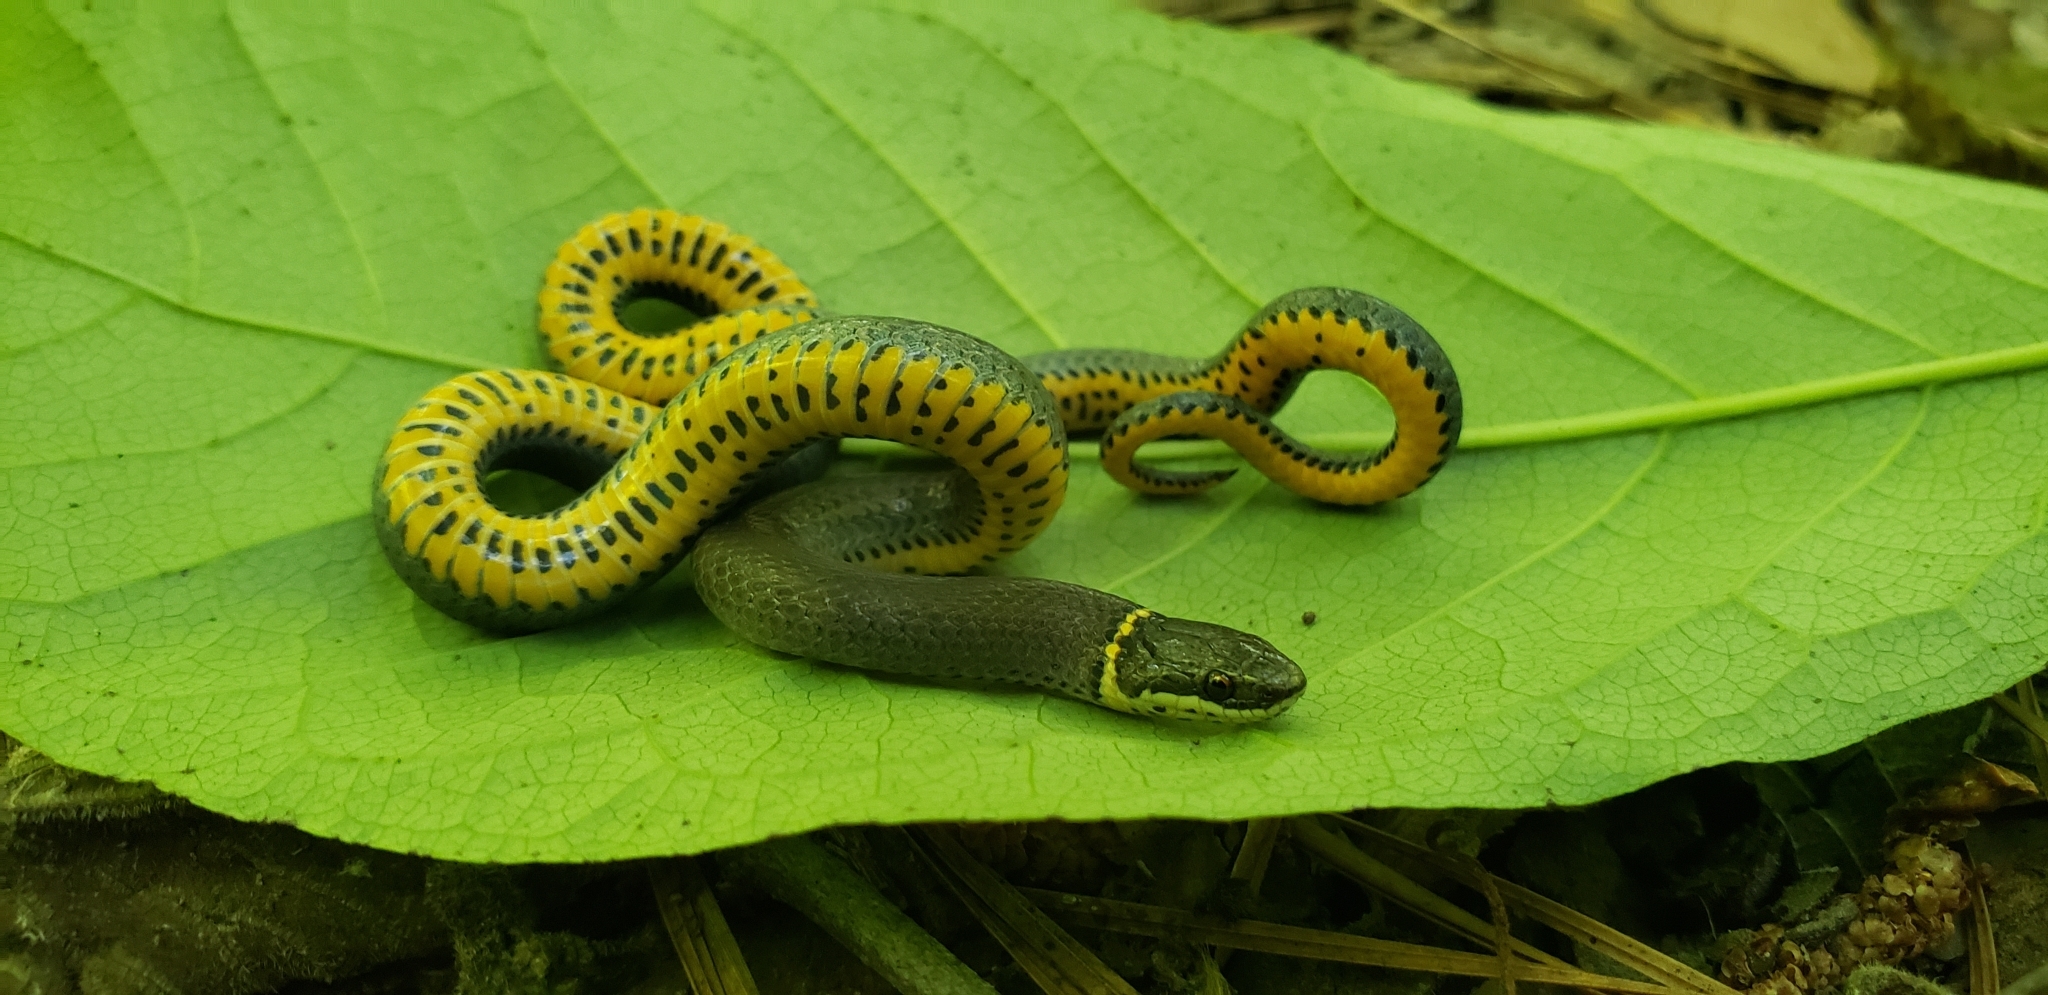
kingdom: Animalia
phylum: Chordata
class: Squamata
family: Colubridae
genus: Diadophis
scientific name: Diadophis punctatus
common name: Ringneck snake
